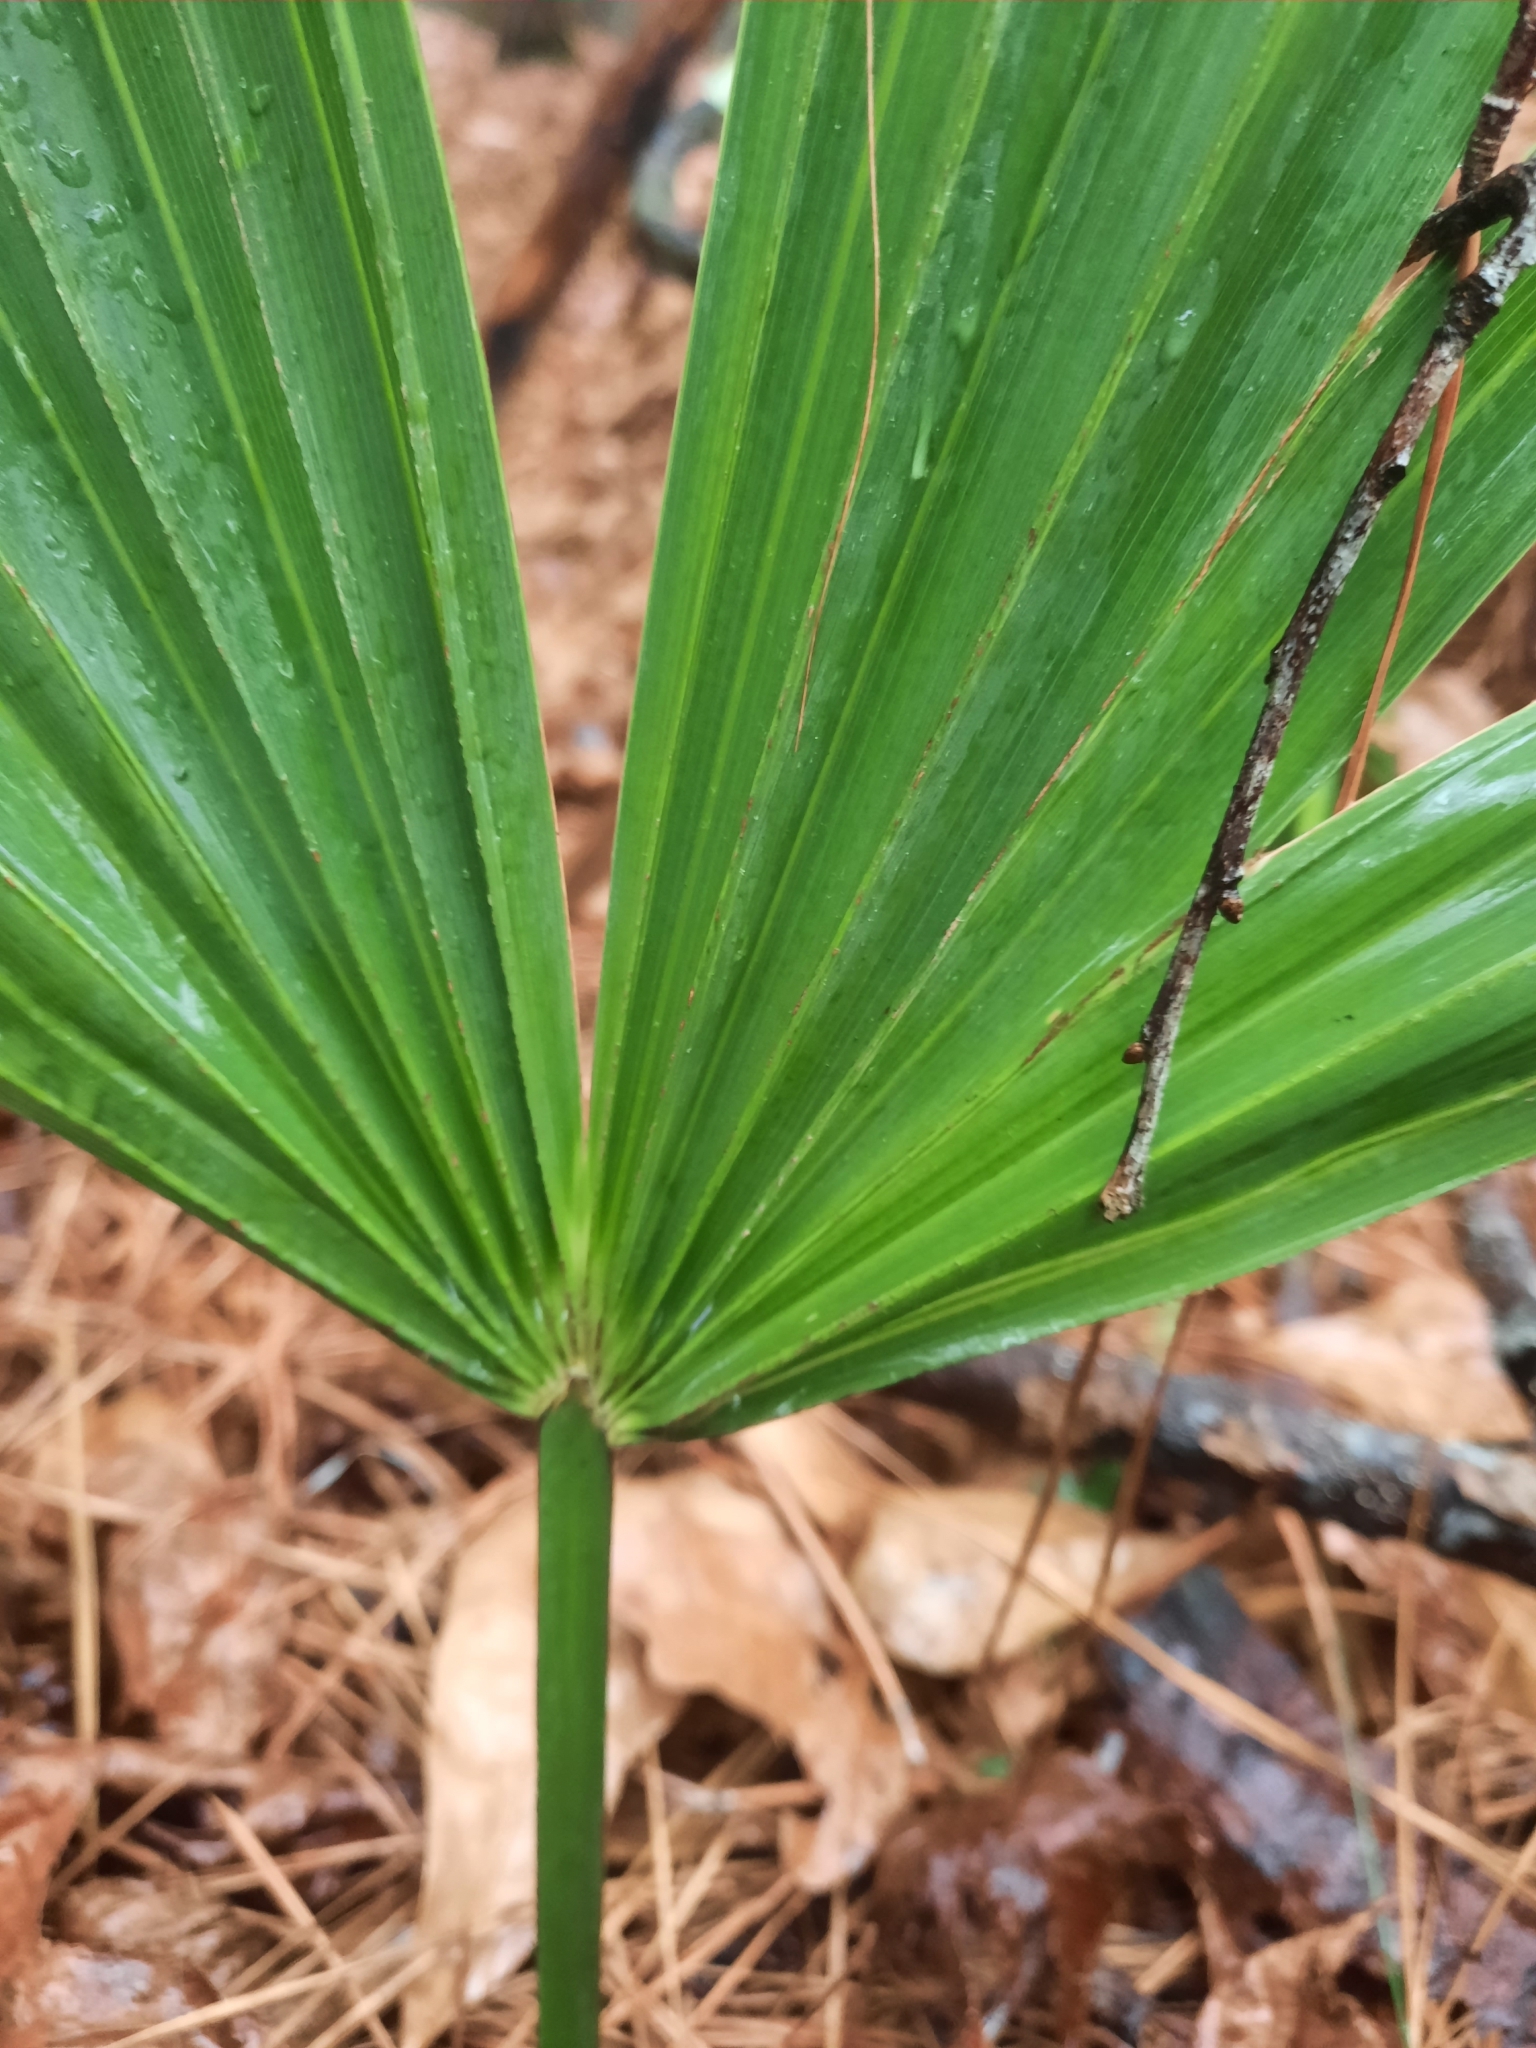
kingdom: Plantae
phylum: Tracheophyta
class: Liliopsida
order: Arecales
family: Arecaceae
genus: Sabal
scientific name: Sabal minor
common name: Dwarf palmetto
